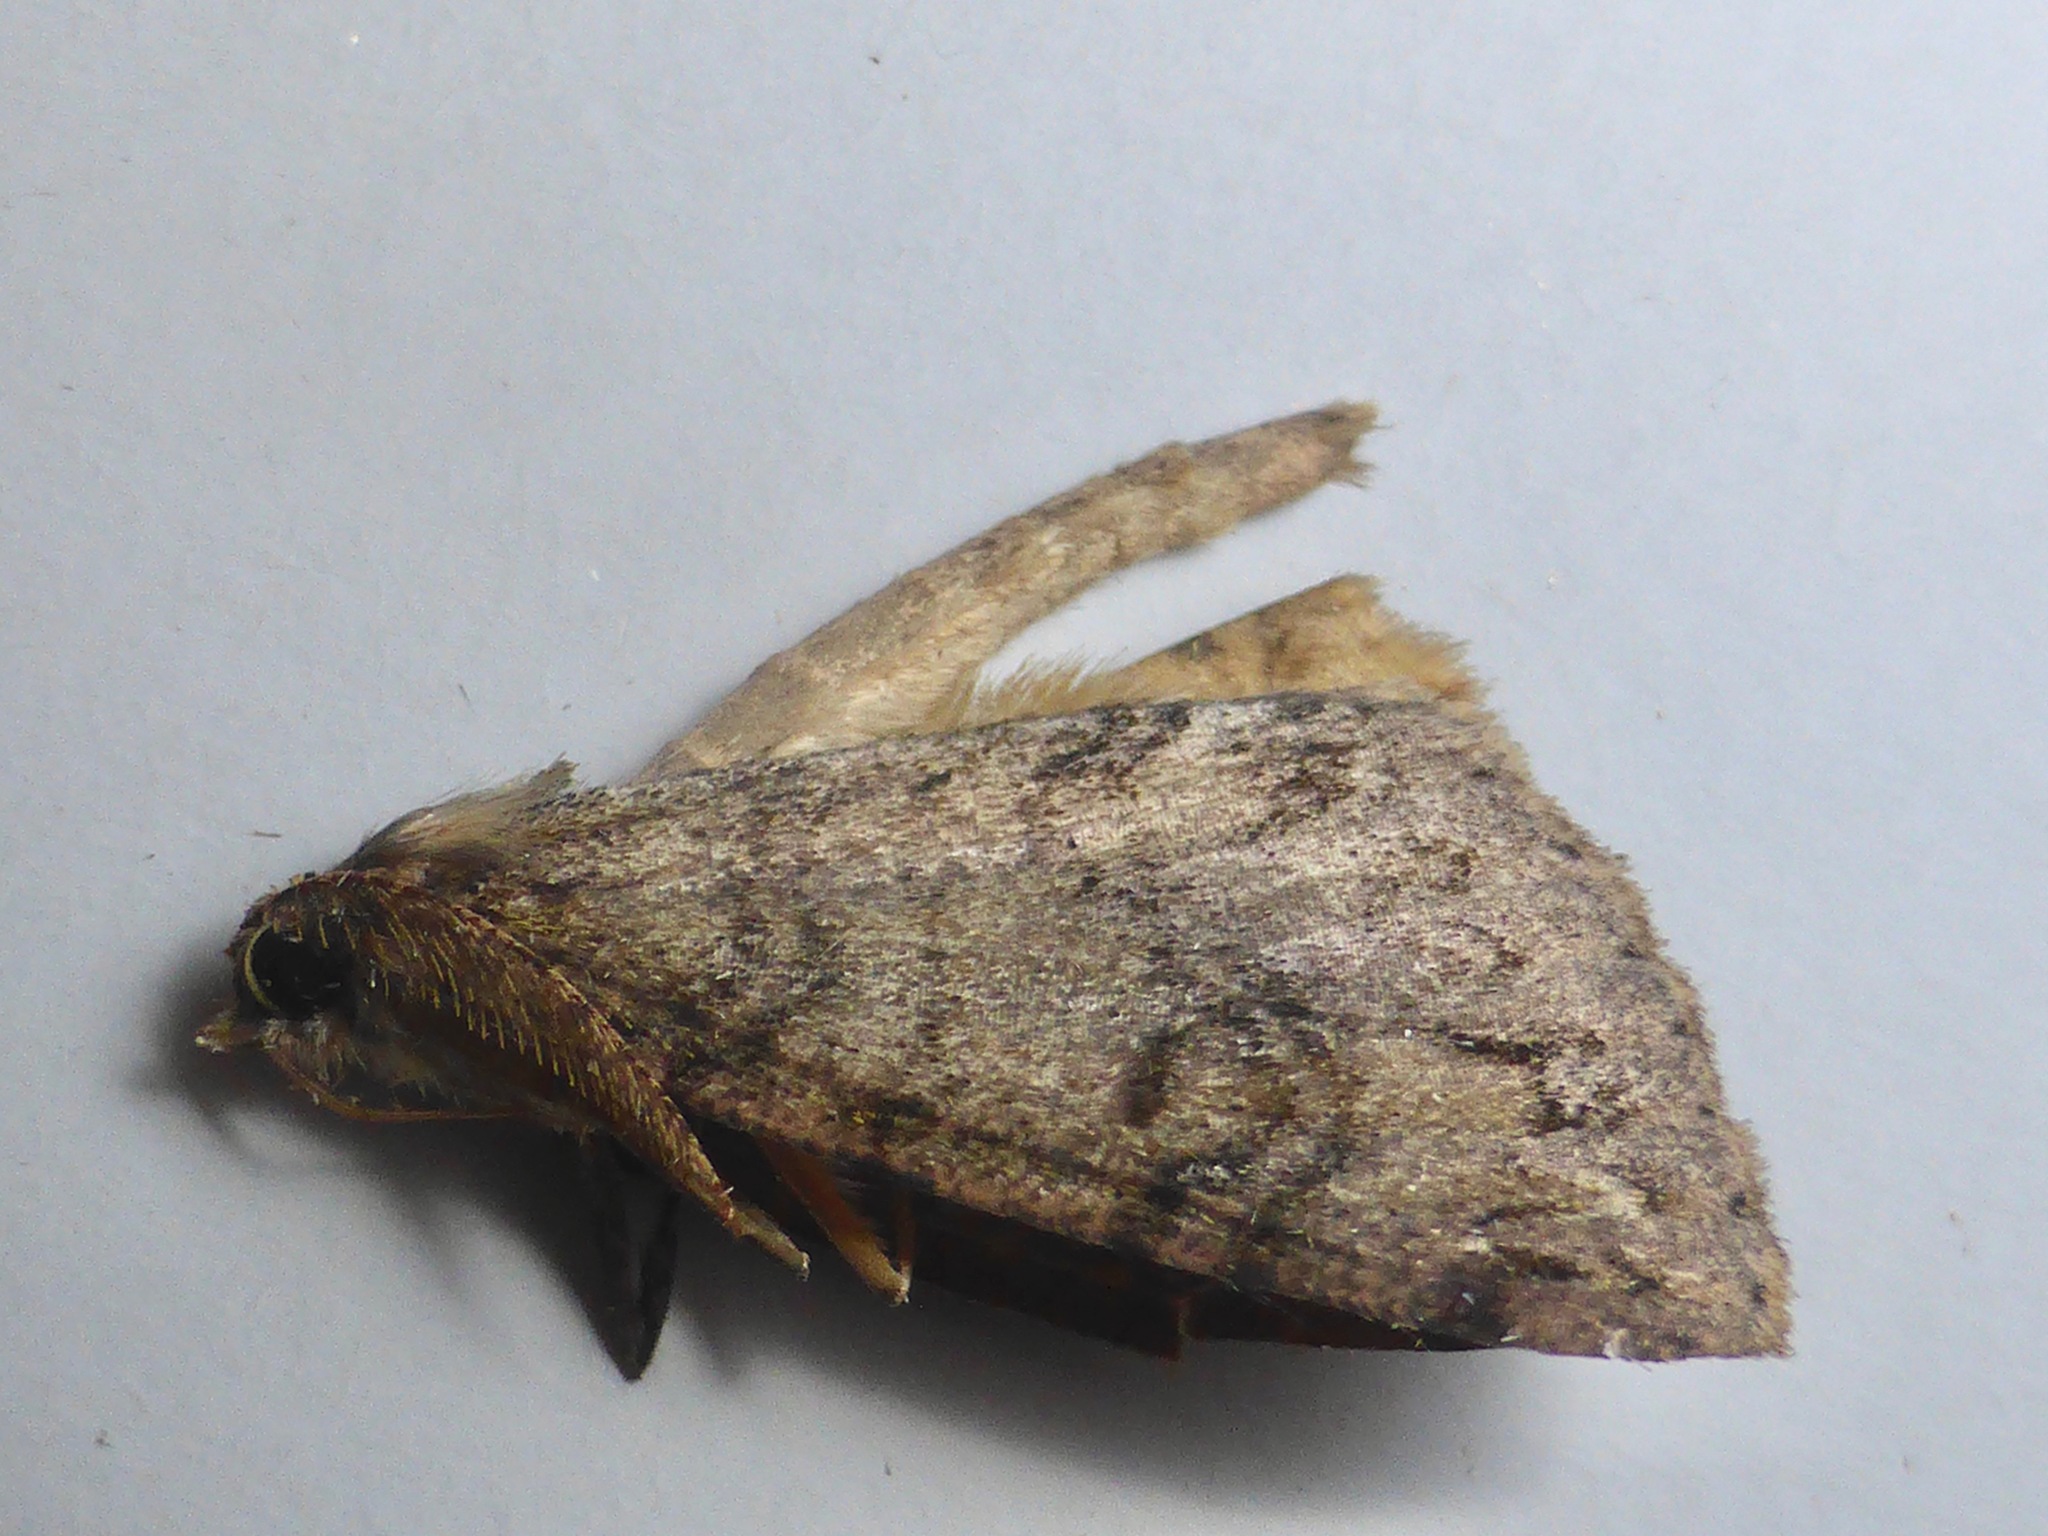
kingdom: Animalia
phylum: Arthropoda
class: Insecta
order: Lepidoptera
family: Geometridae
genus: Pseudocoremia
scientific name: Pseudocoremia suavis
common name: Common forest looper
